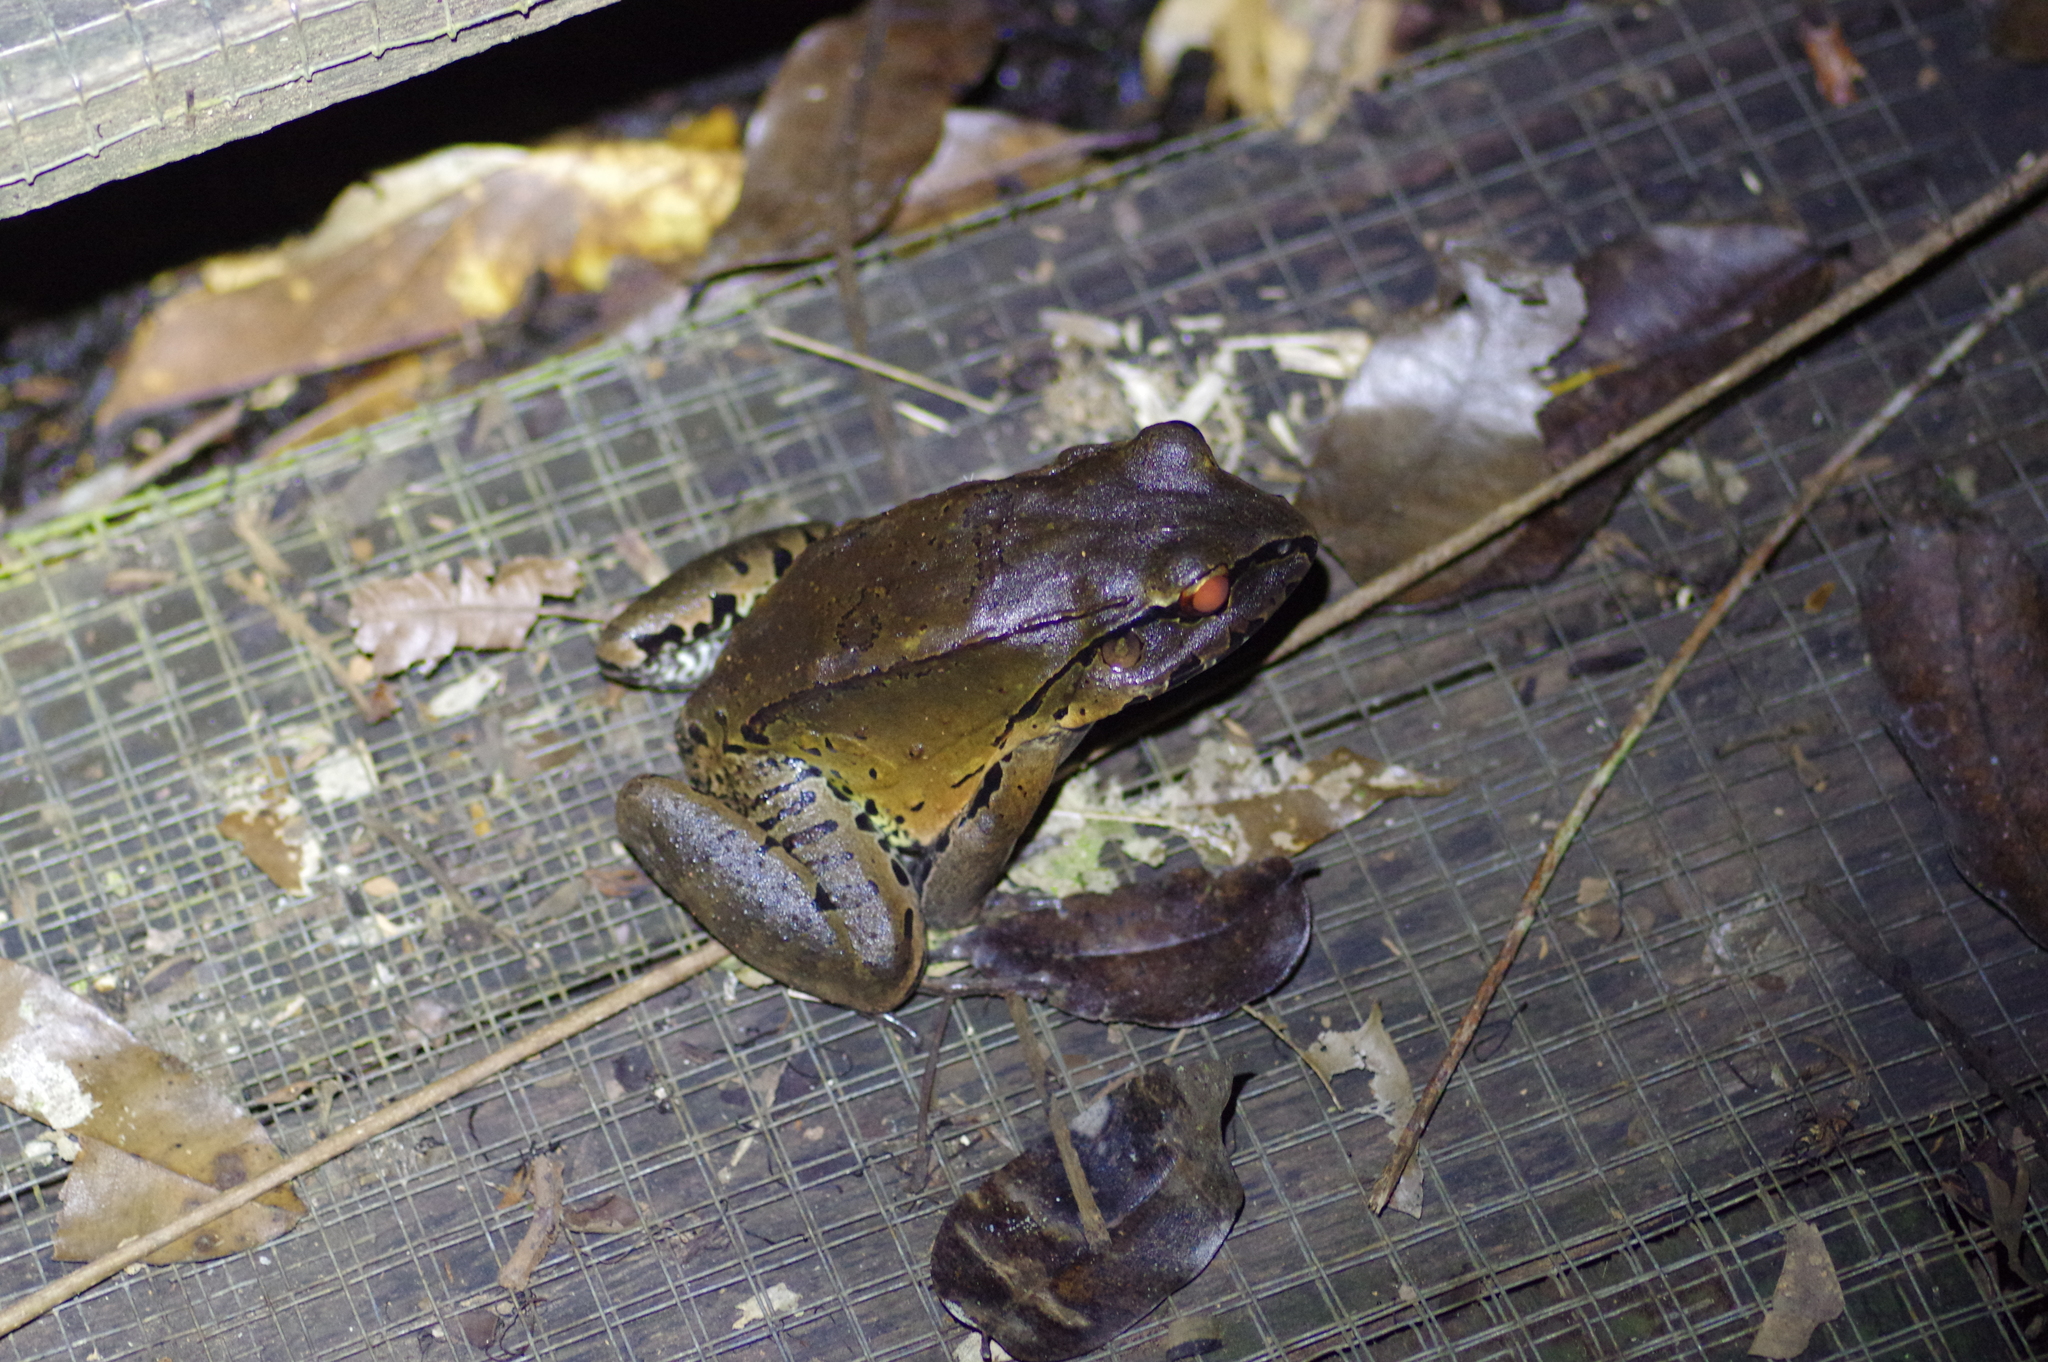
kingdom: Animalia
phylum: Chordata
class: Amphibia
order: Anura
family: Leptodactylidae
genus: Leptodactylus
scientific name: Leptodactylus pentadactylus
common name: Smoky jungle frog
